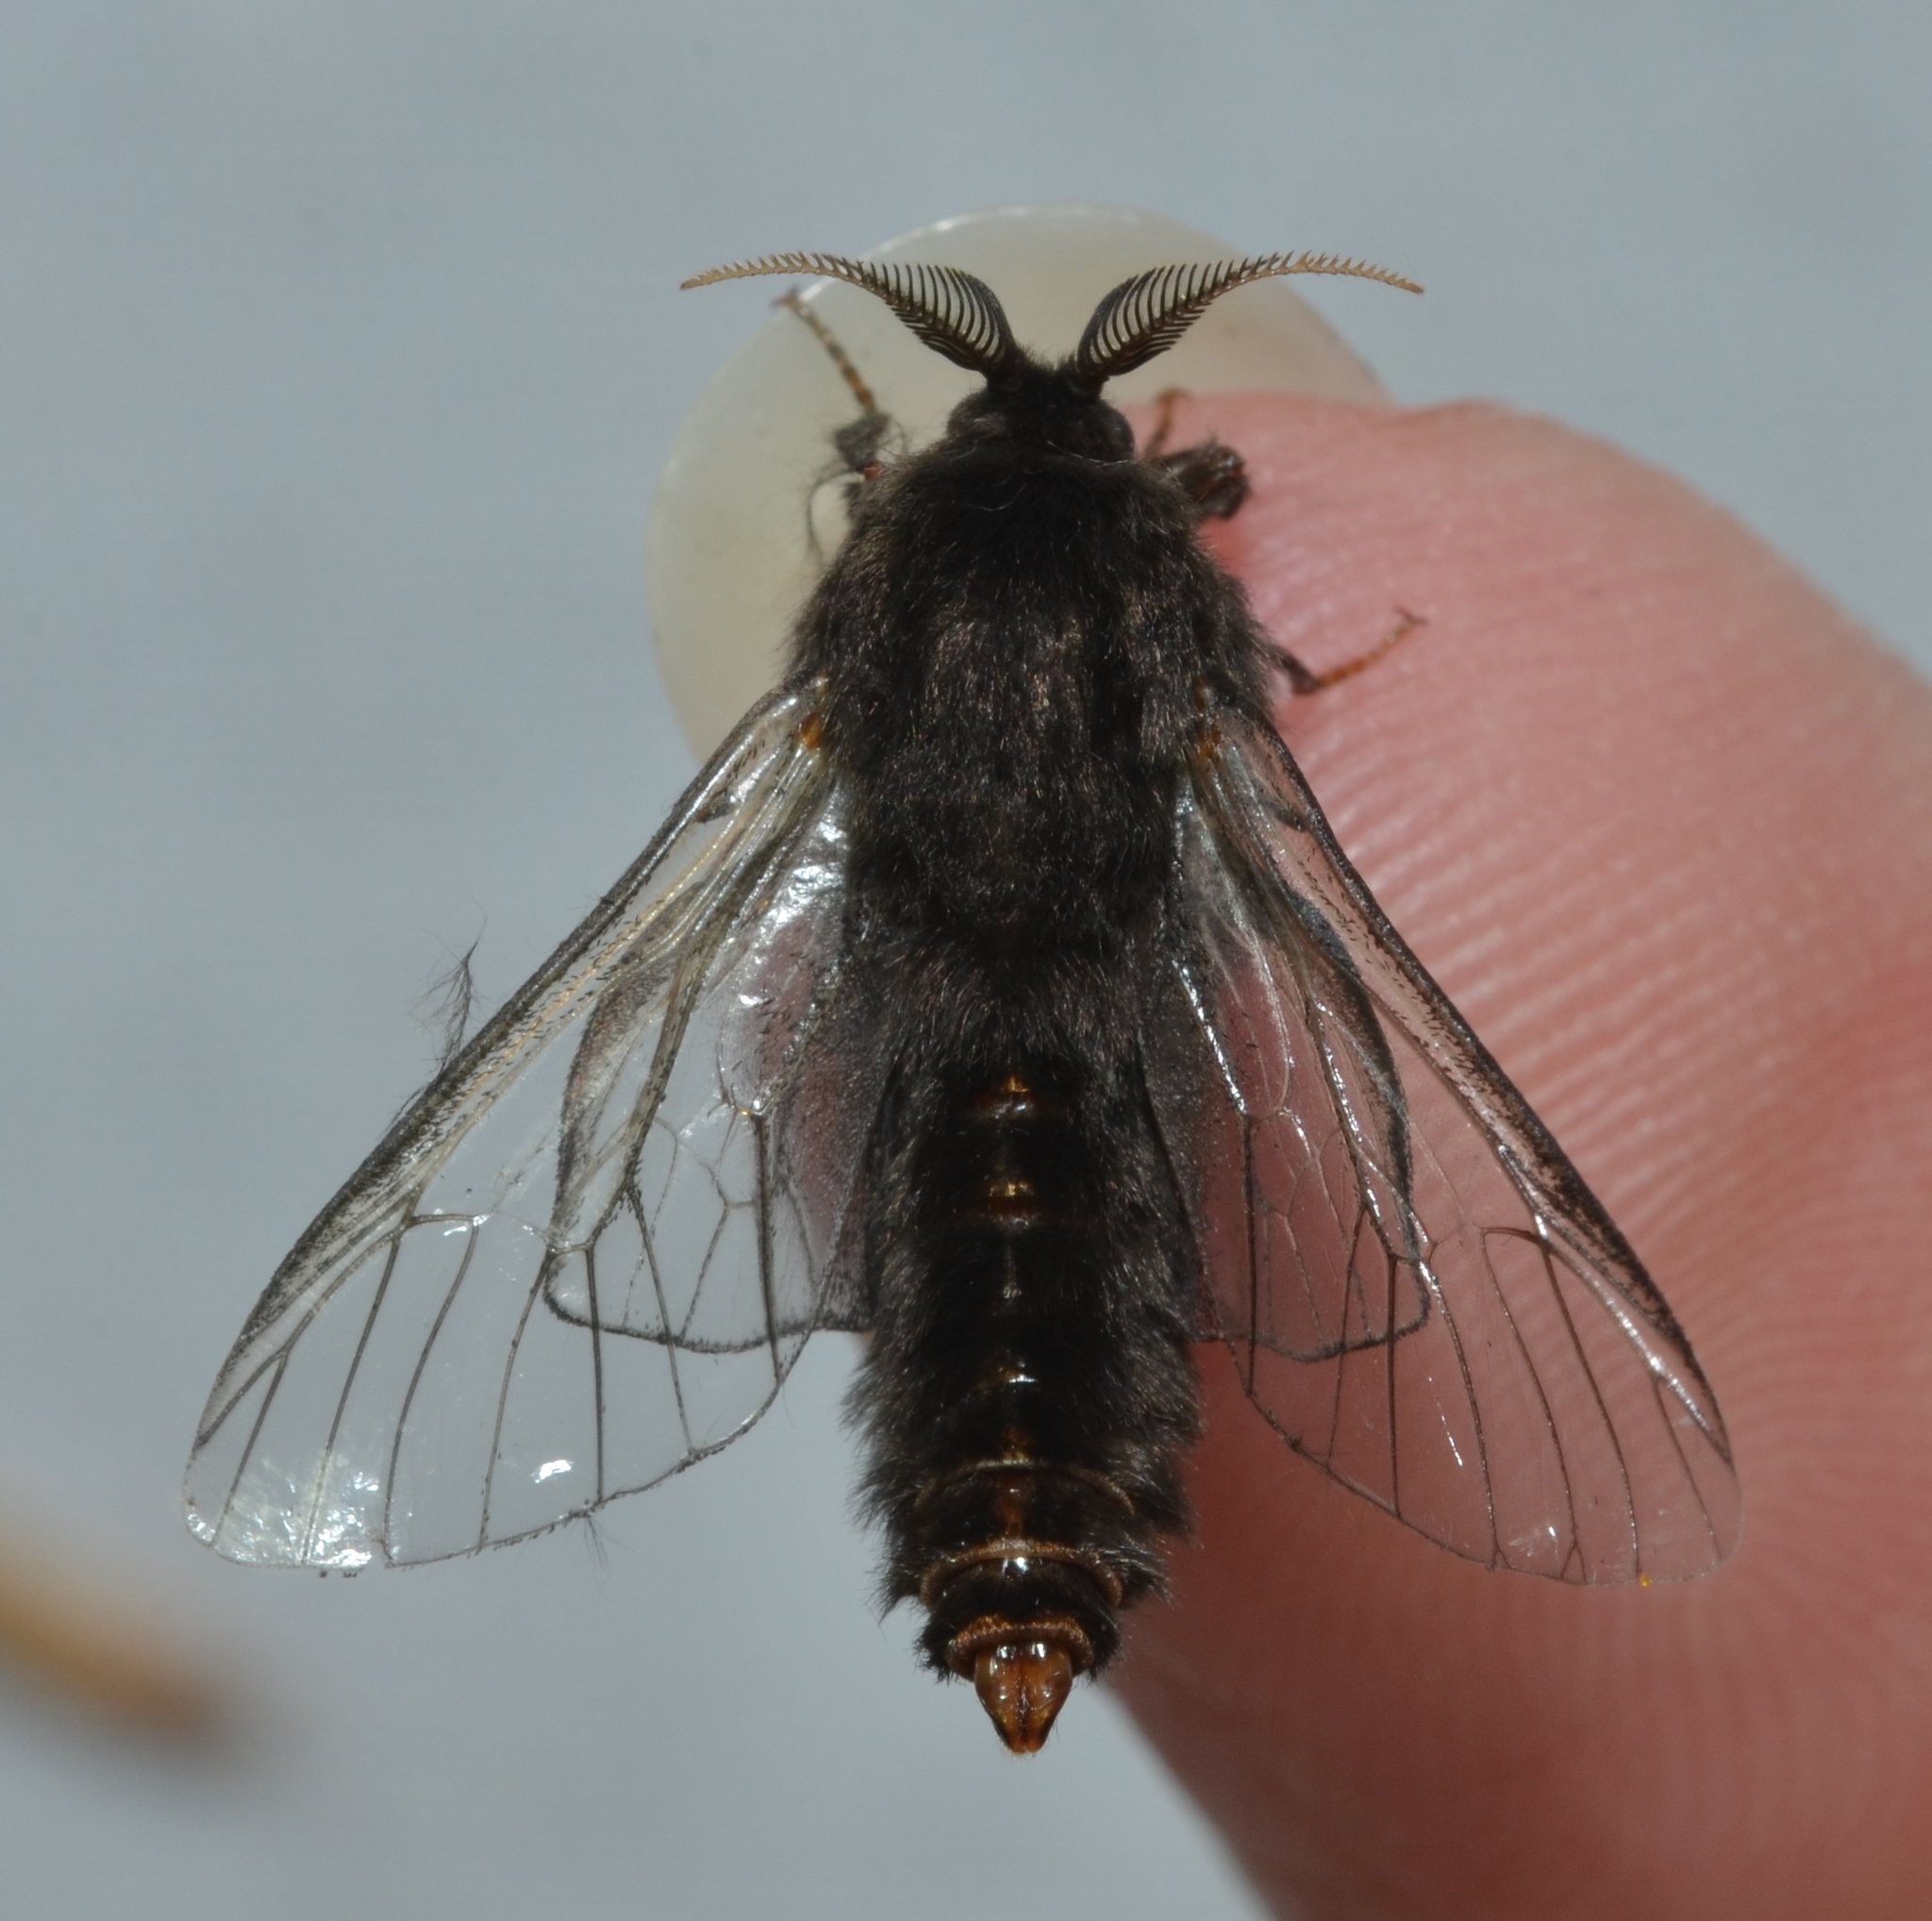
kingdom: Animalia
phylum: Arthropoda
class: Insecta
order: Lepidoptera
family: Psychidae
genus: Thyridopteryx
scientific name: Thyridopteryx ephemeraeformis
